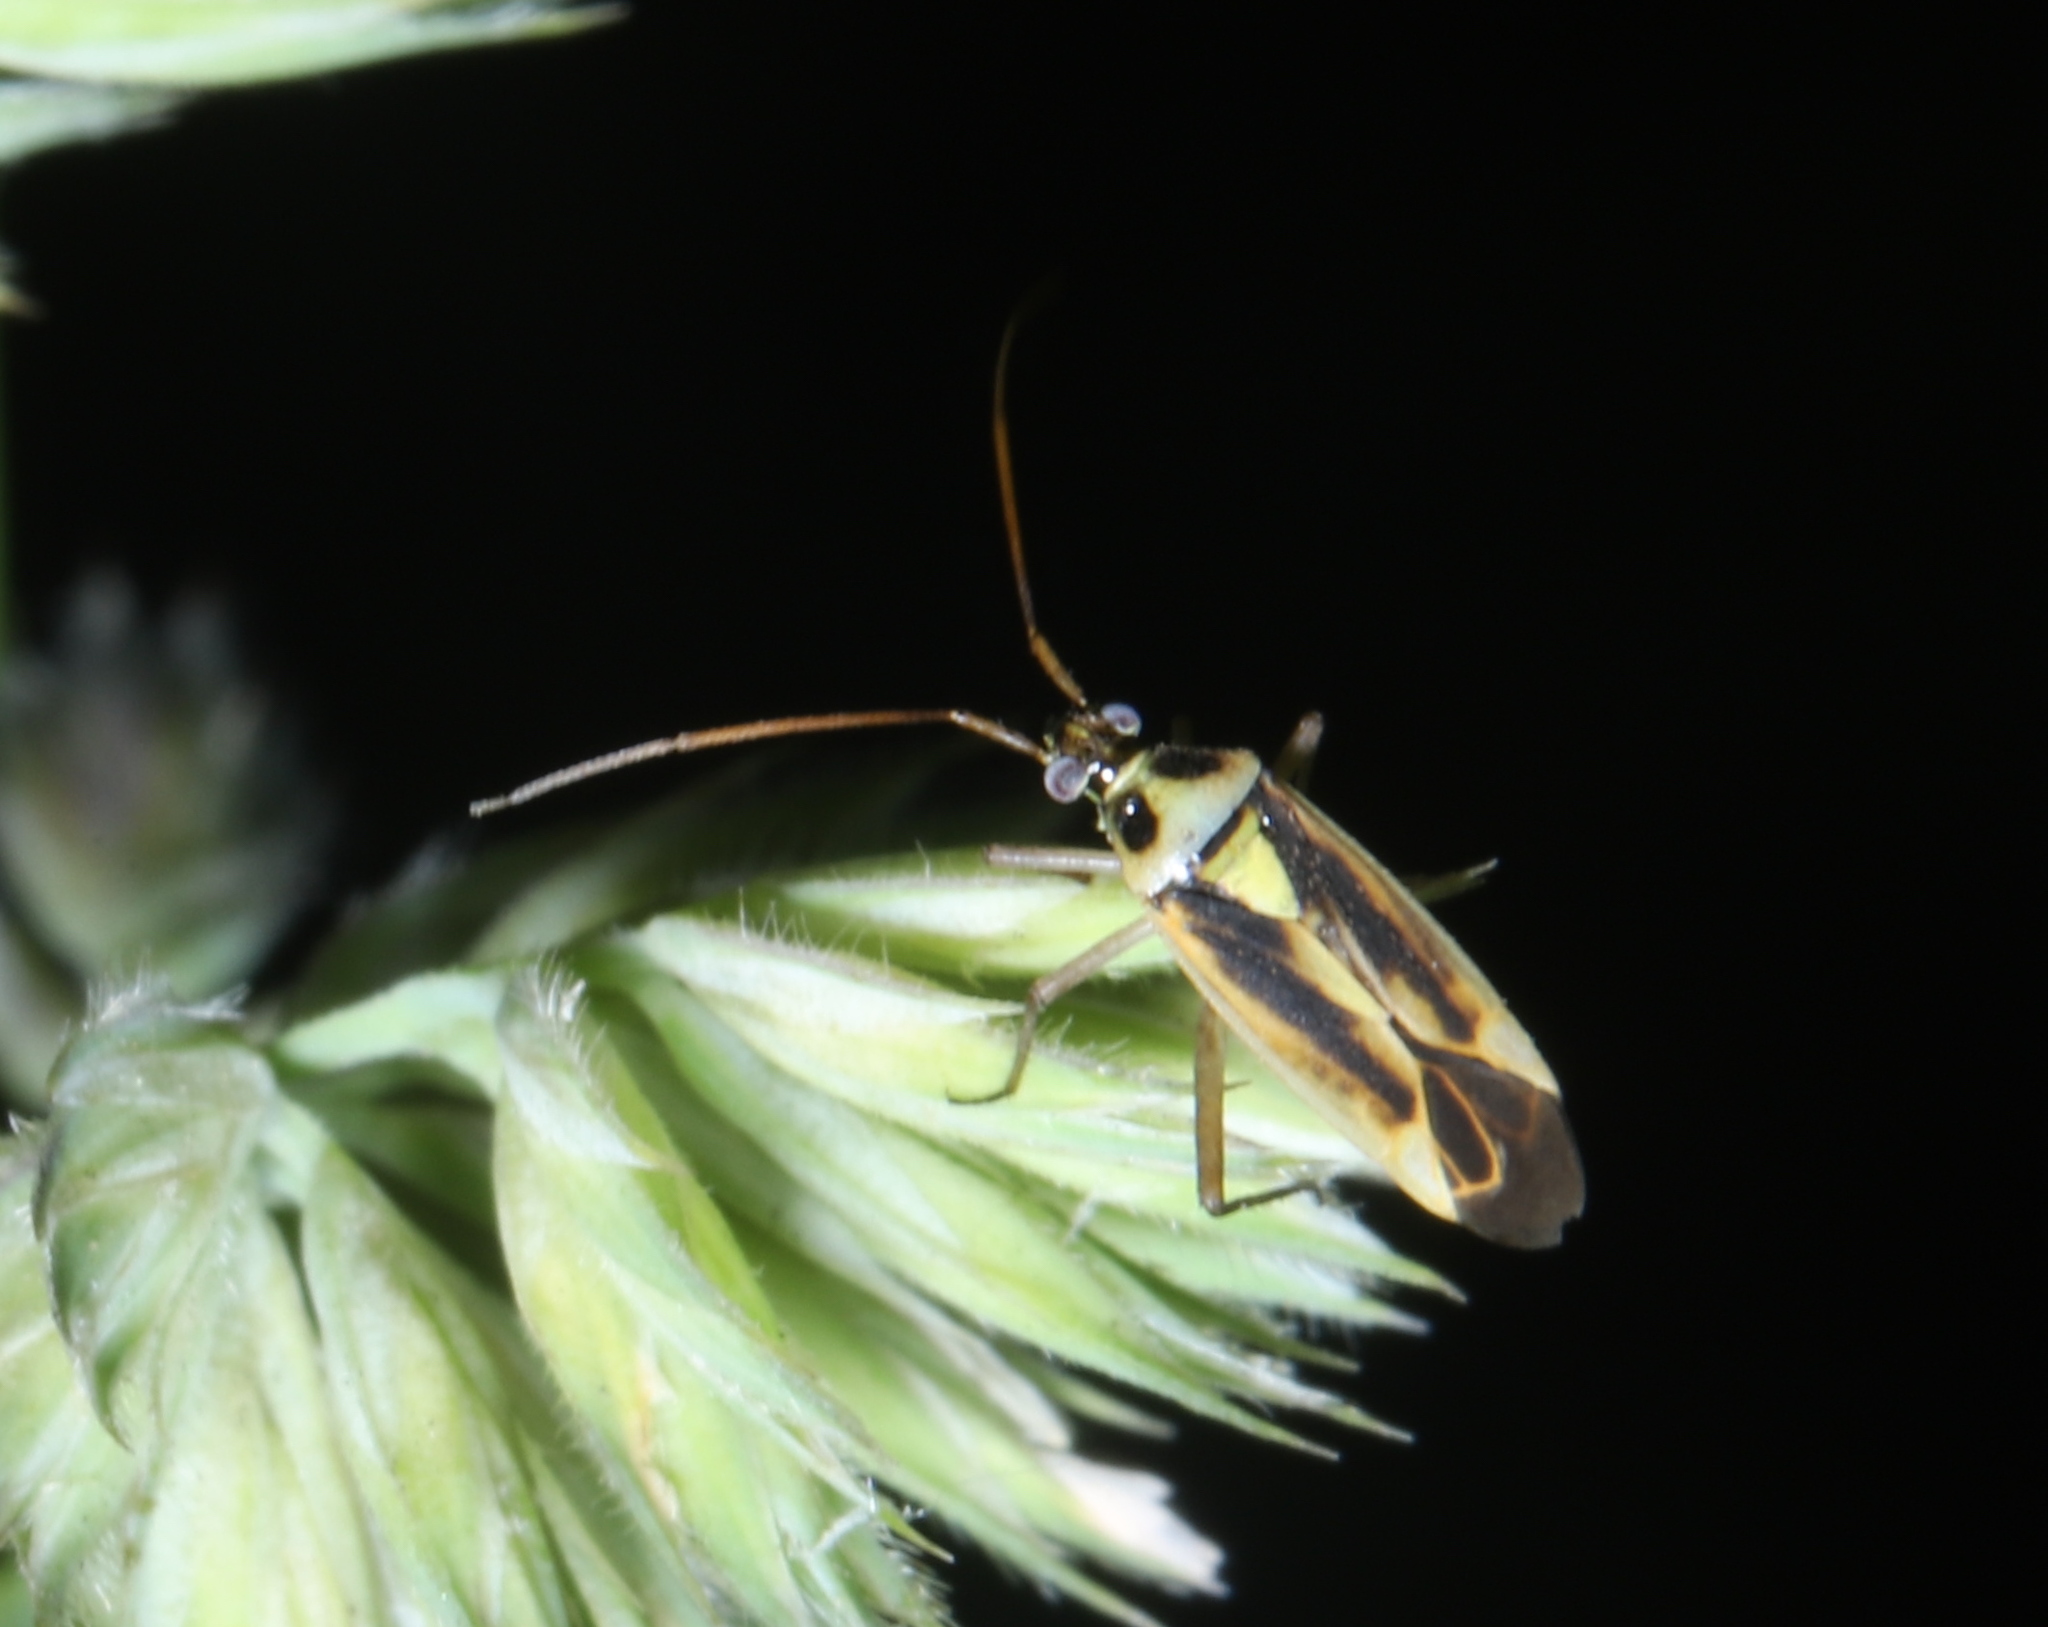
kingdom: Animalia
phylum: Arthropoda
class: Insecta
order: Hemiptera
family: Miridae
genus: Stenotus
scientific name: Stenotus binotatus
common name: Plant bug
